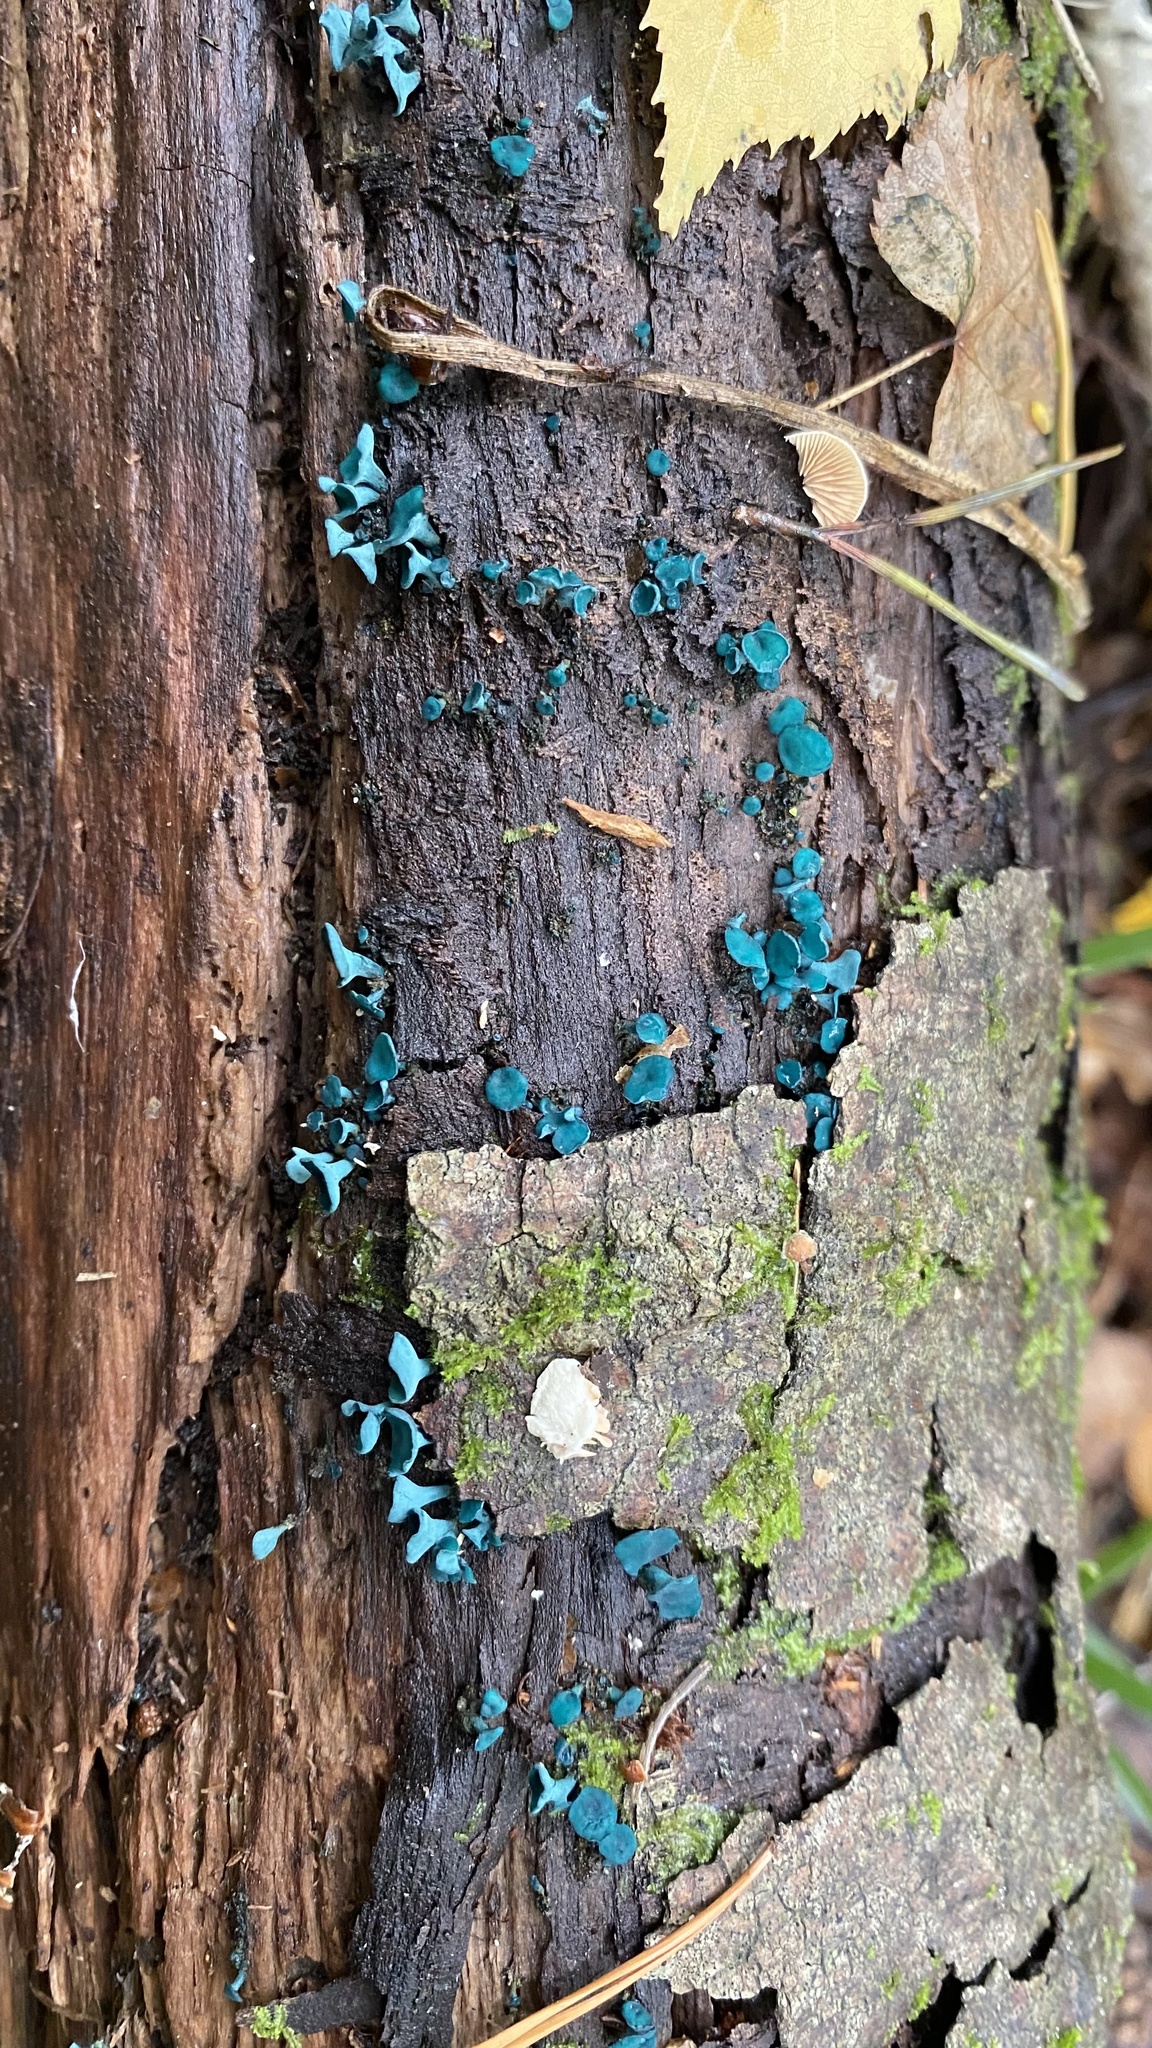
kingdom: Fungi
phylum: Ascomycota
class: Leotiomycetes
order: Helotiales
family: Chlorociboriaceae
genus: Chlorociboria
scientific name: Chlorociboria aeruginascens
